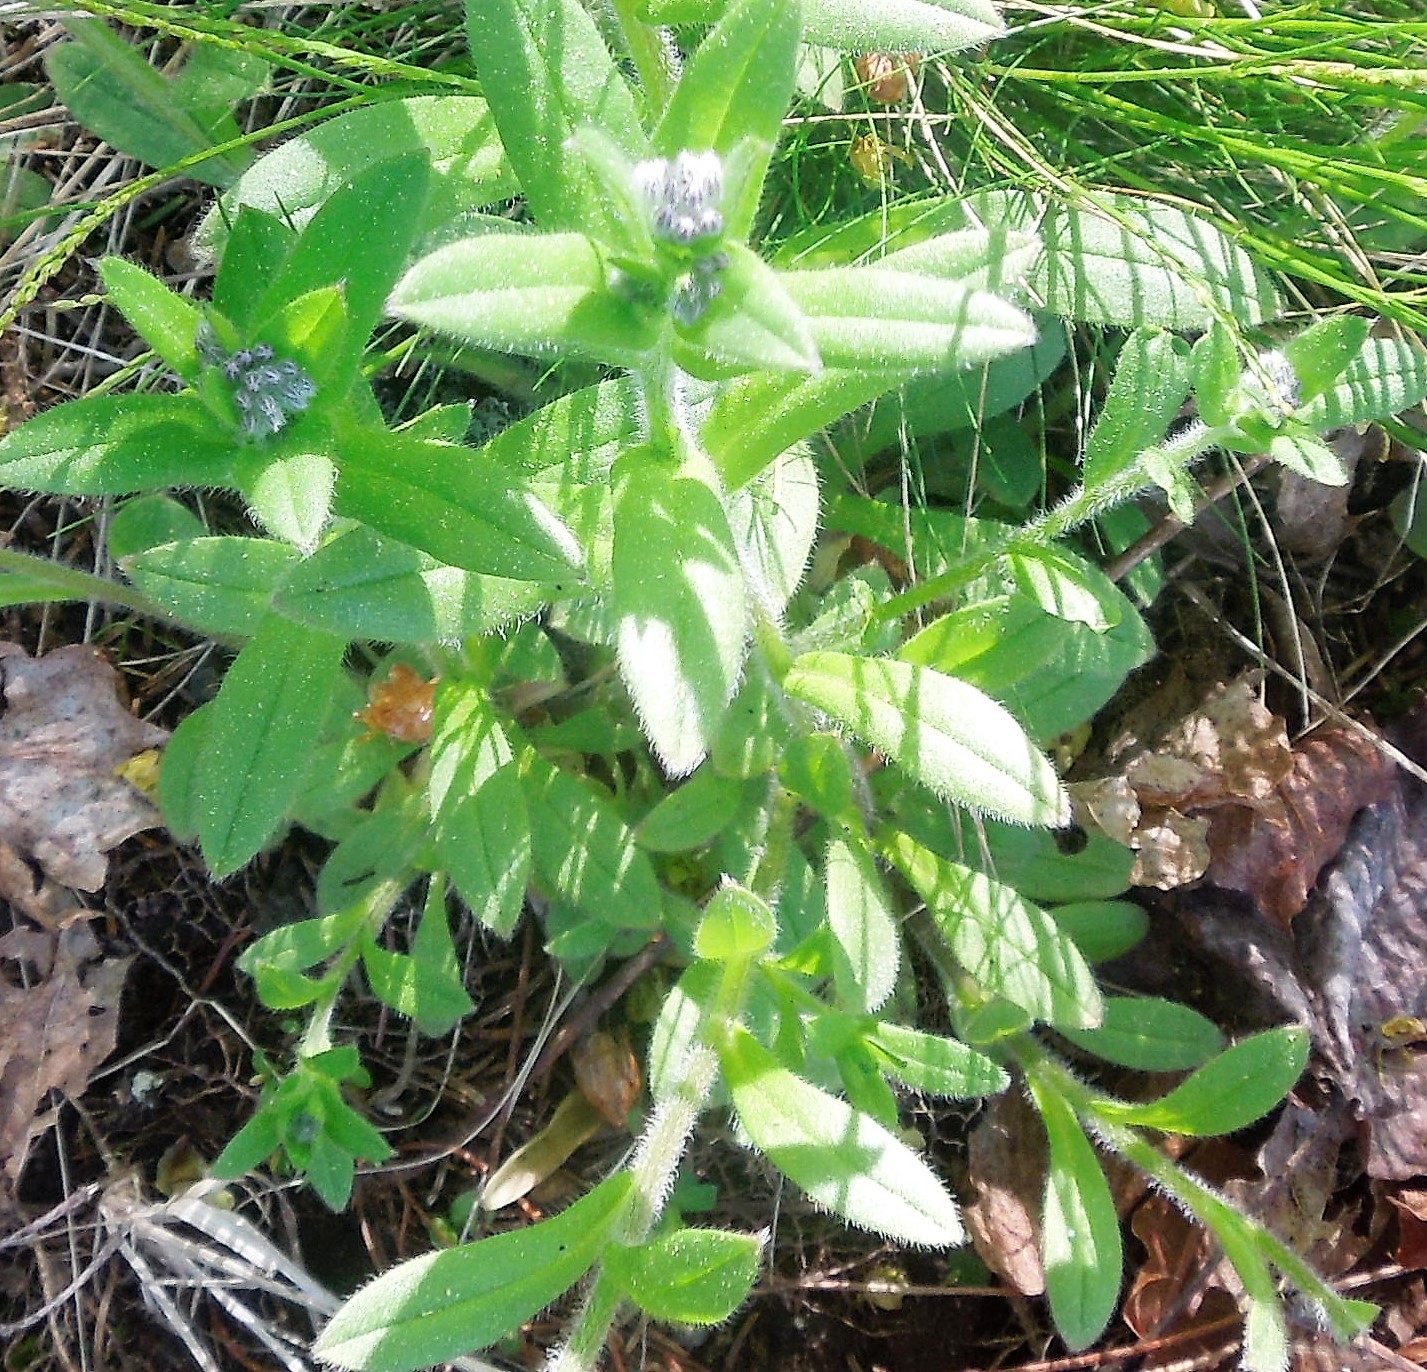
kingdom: Plantae
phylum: Tracheophyta
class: Magnoliopsida
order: Boraginales
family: Boraginaceae
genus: Myosotis
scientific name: Myosotis
